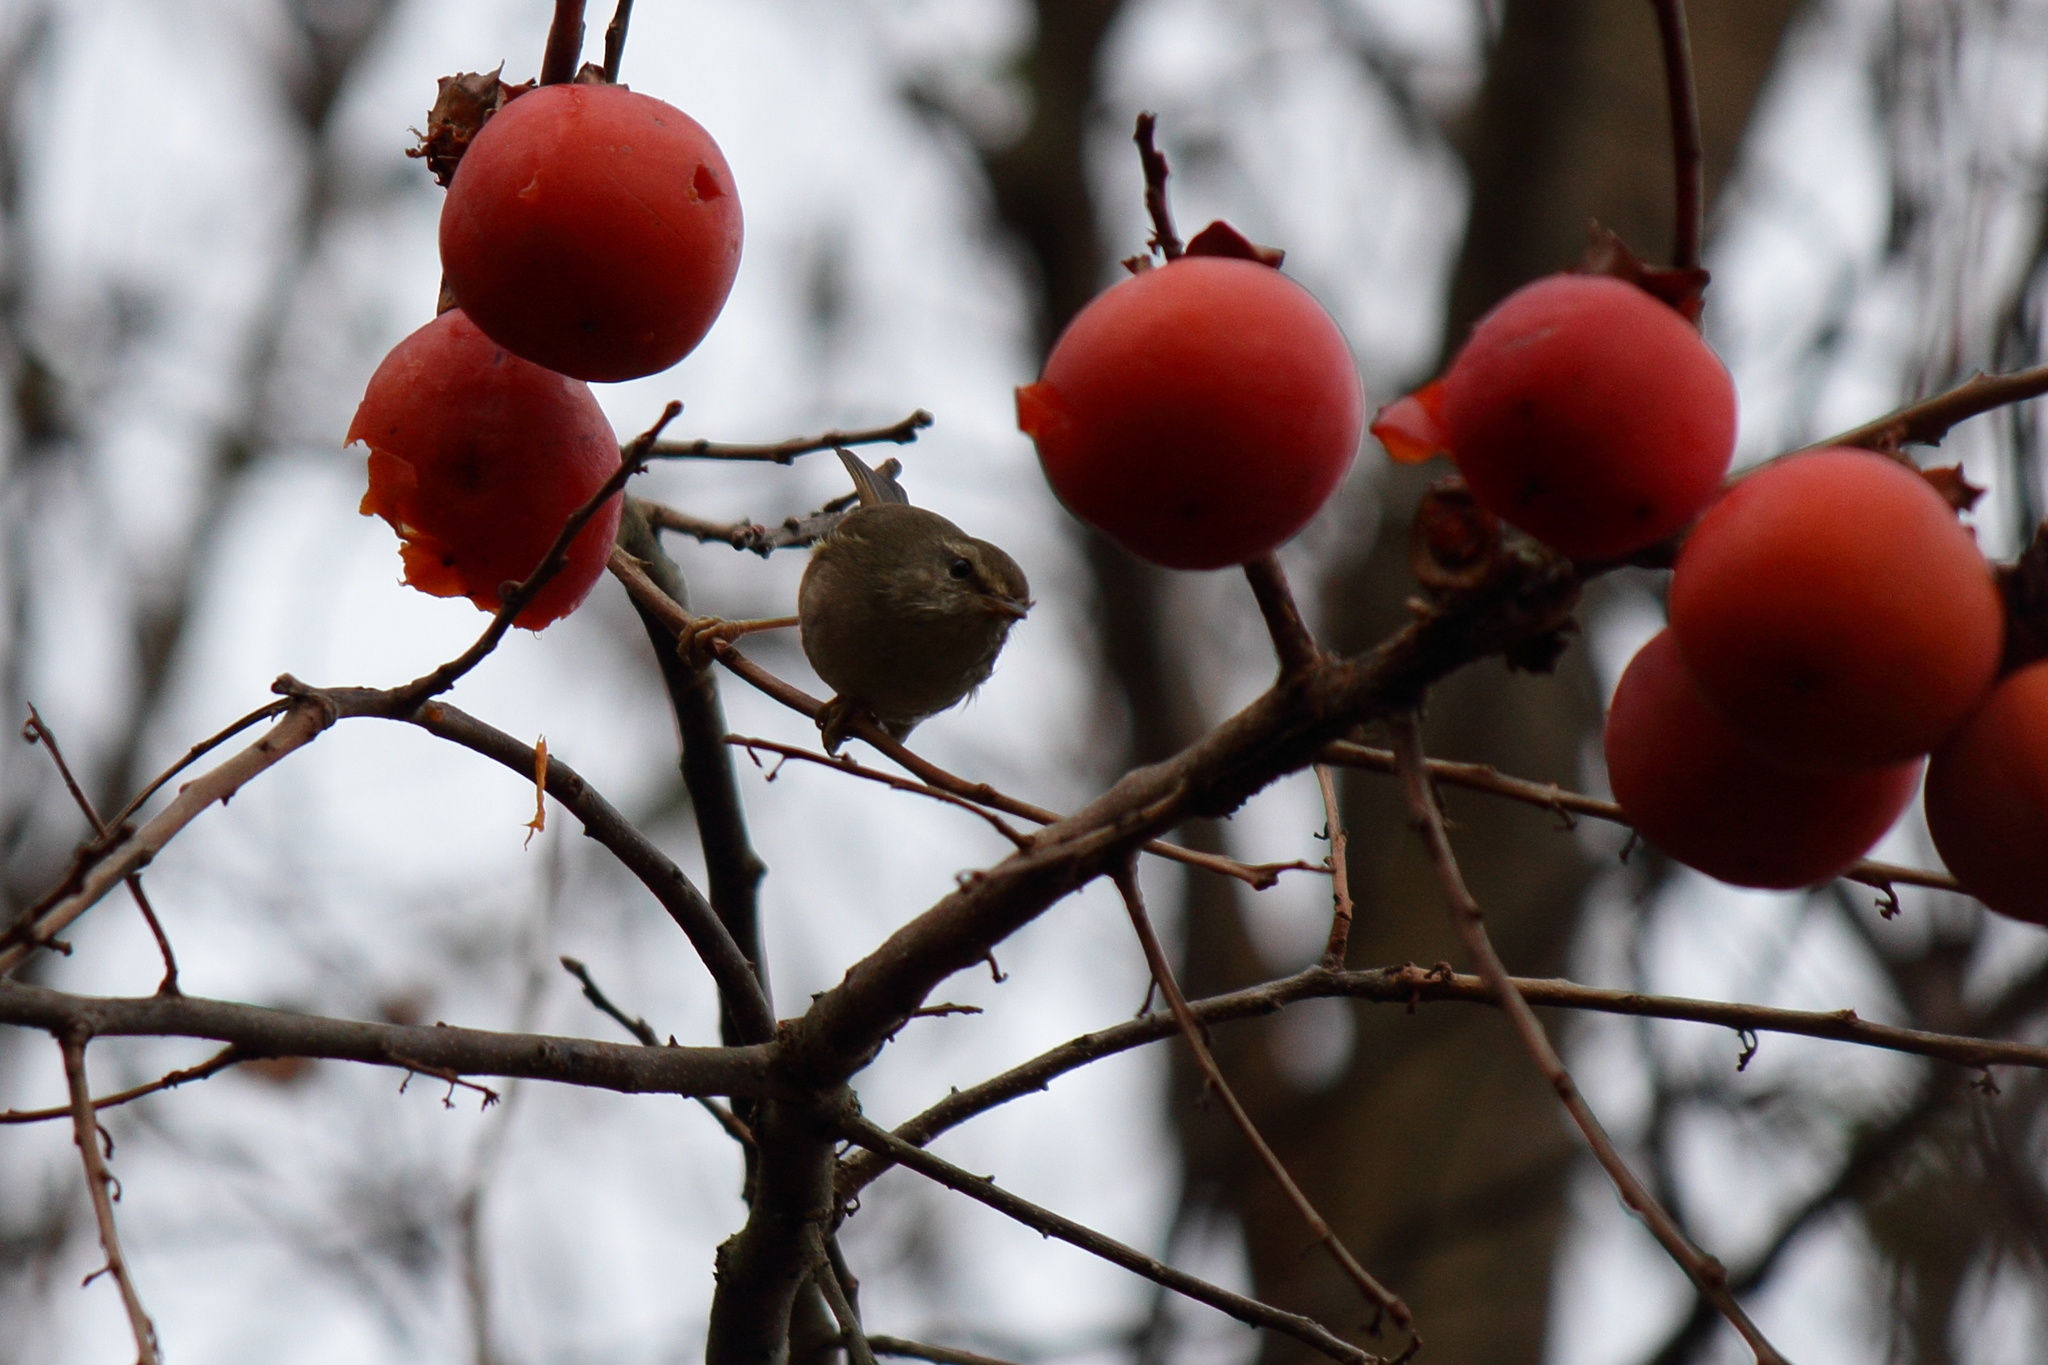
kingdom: Animalia
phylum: Chordata
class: Aves
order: Passeriformes
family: Cettiidae
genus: Horornis
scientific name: Horornis diphone
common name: Japanese bush warbler
